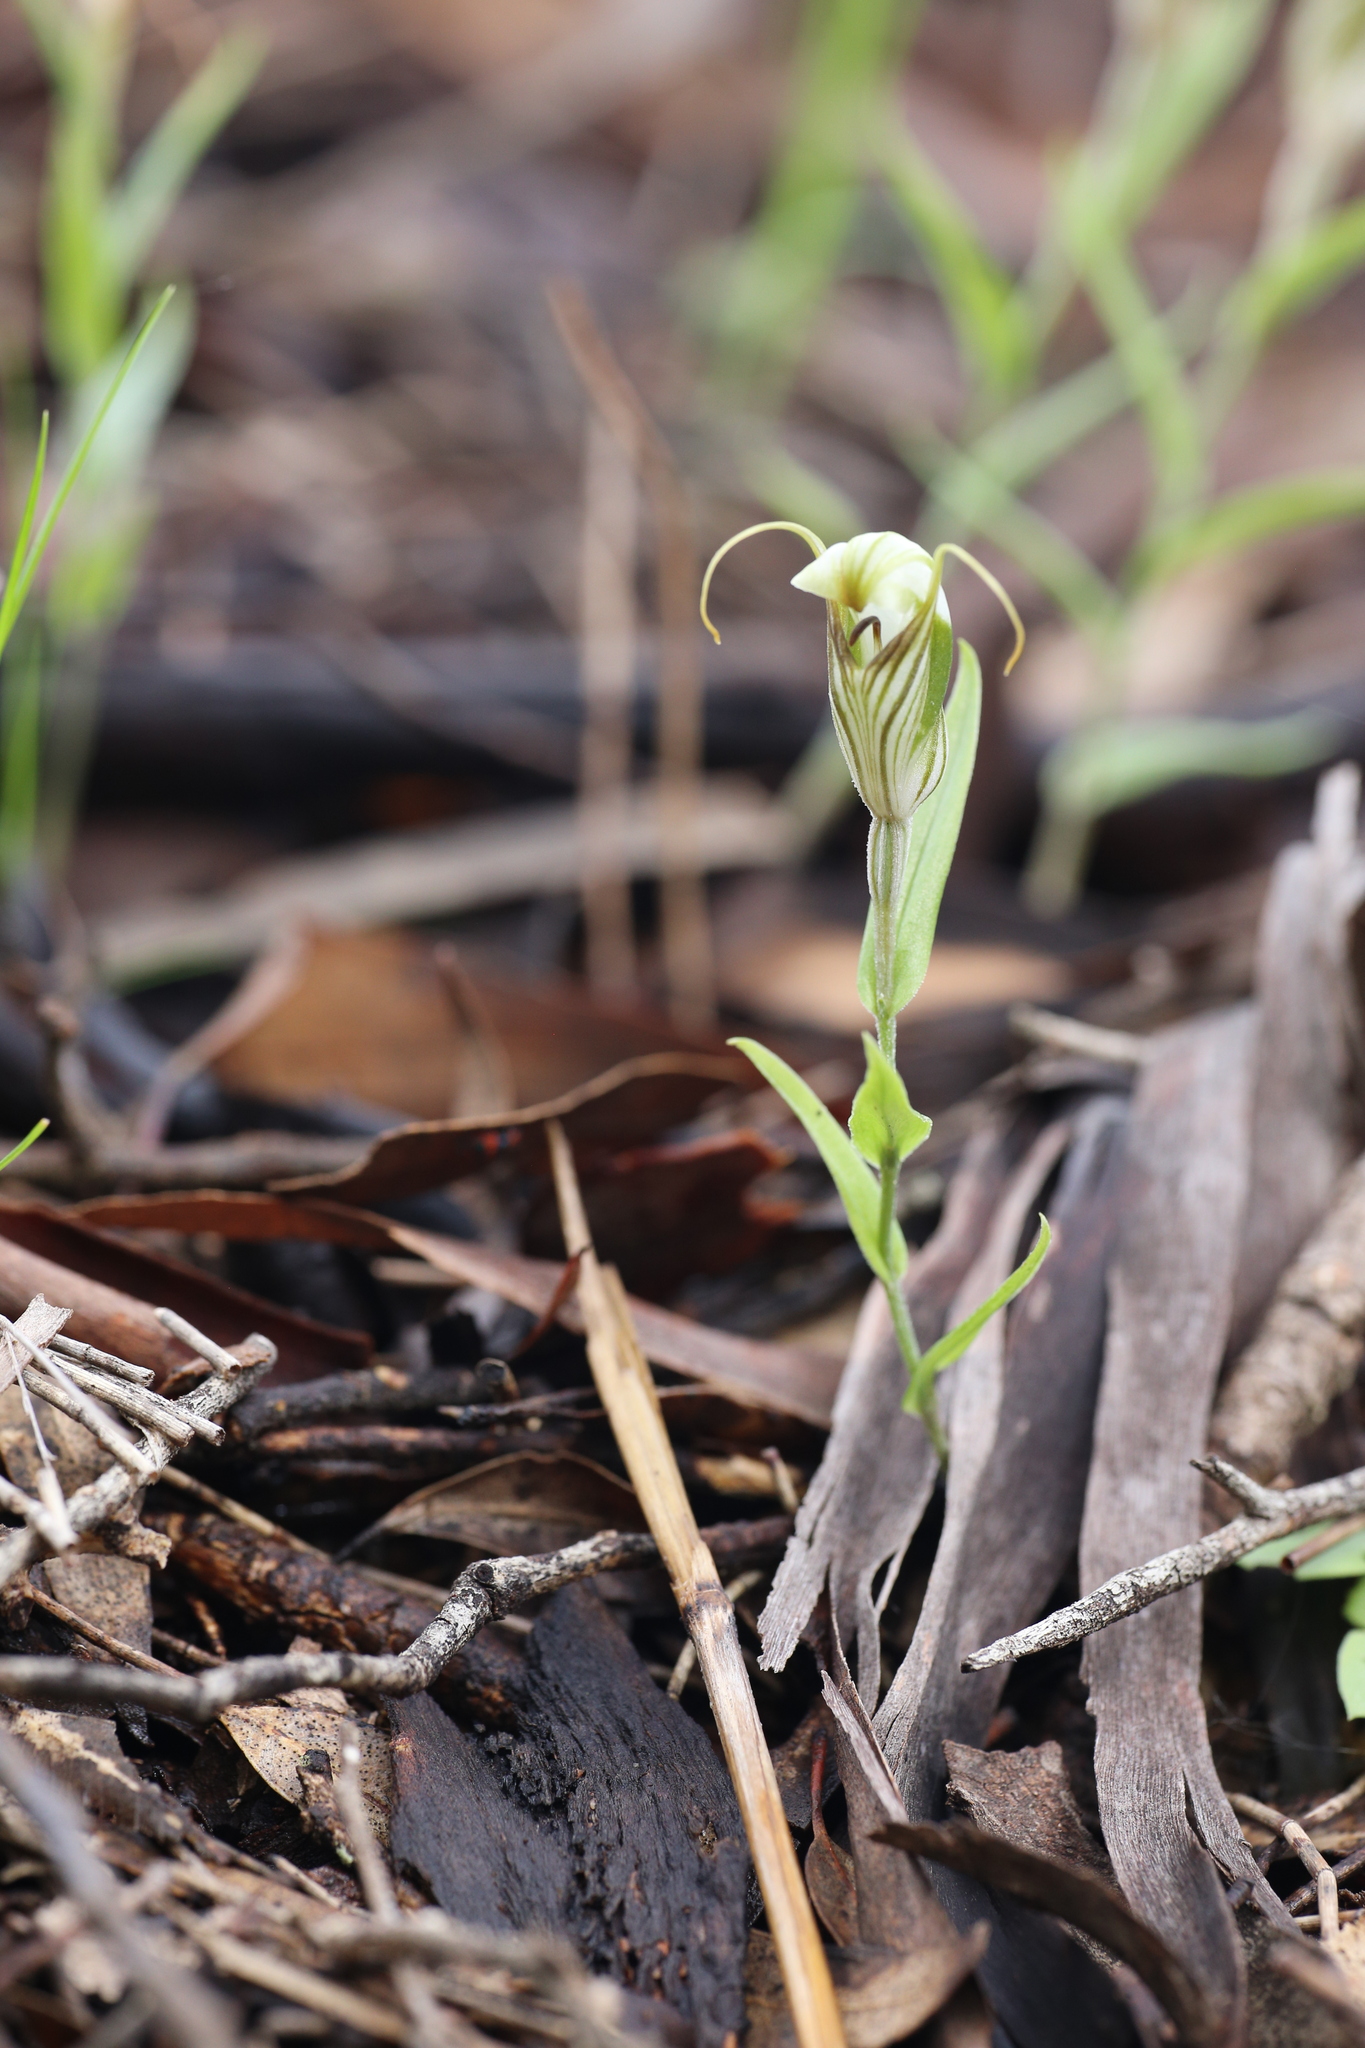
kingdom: Plantae
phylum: Tracheophyta
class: Liliopsida
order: Asparagales
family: Orchidaceae
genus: Pterostylis
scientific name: Pterostylis scabra
